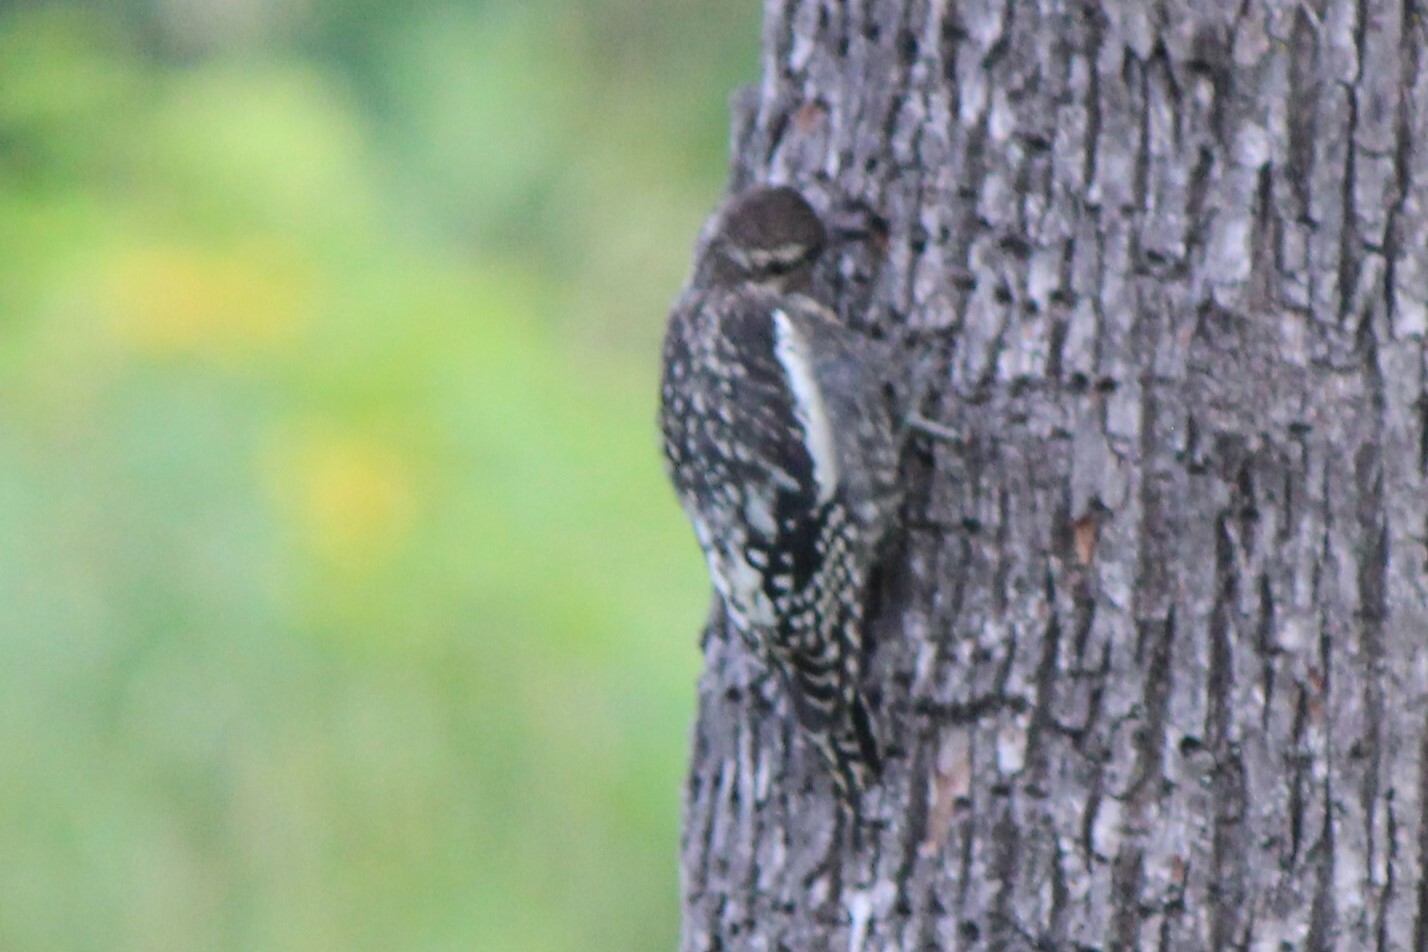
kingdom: Animalia
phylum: Chordata
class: Aves
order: Piciformes
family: Picidae
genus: Sphyrapicus
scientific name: Sphyrapicus varius
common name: Yellow-bellied sapsucker
